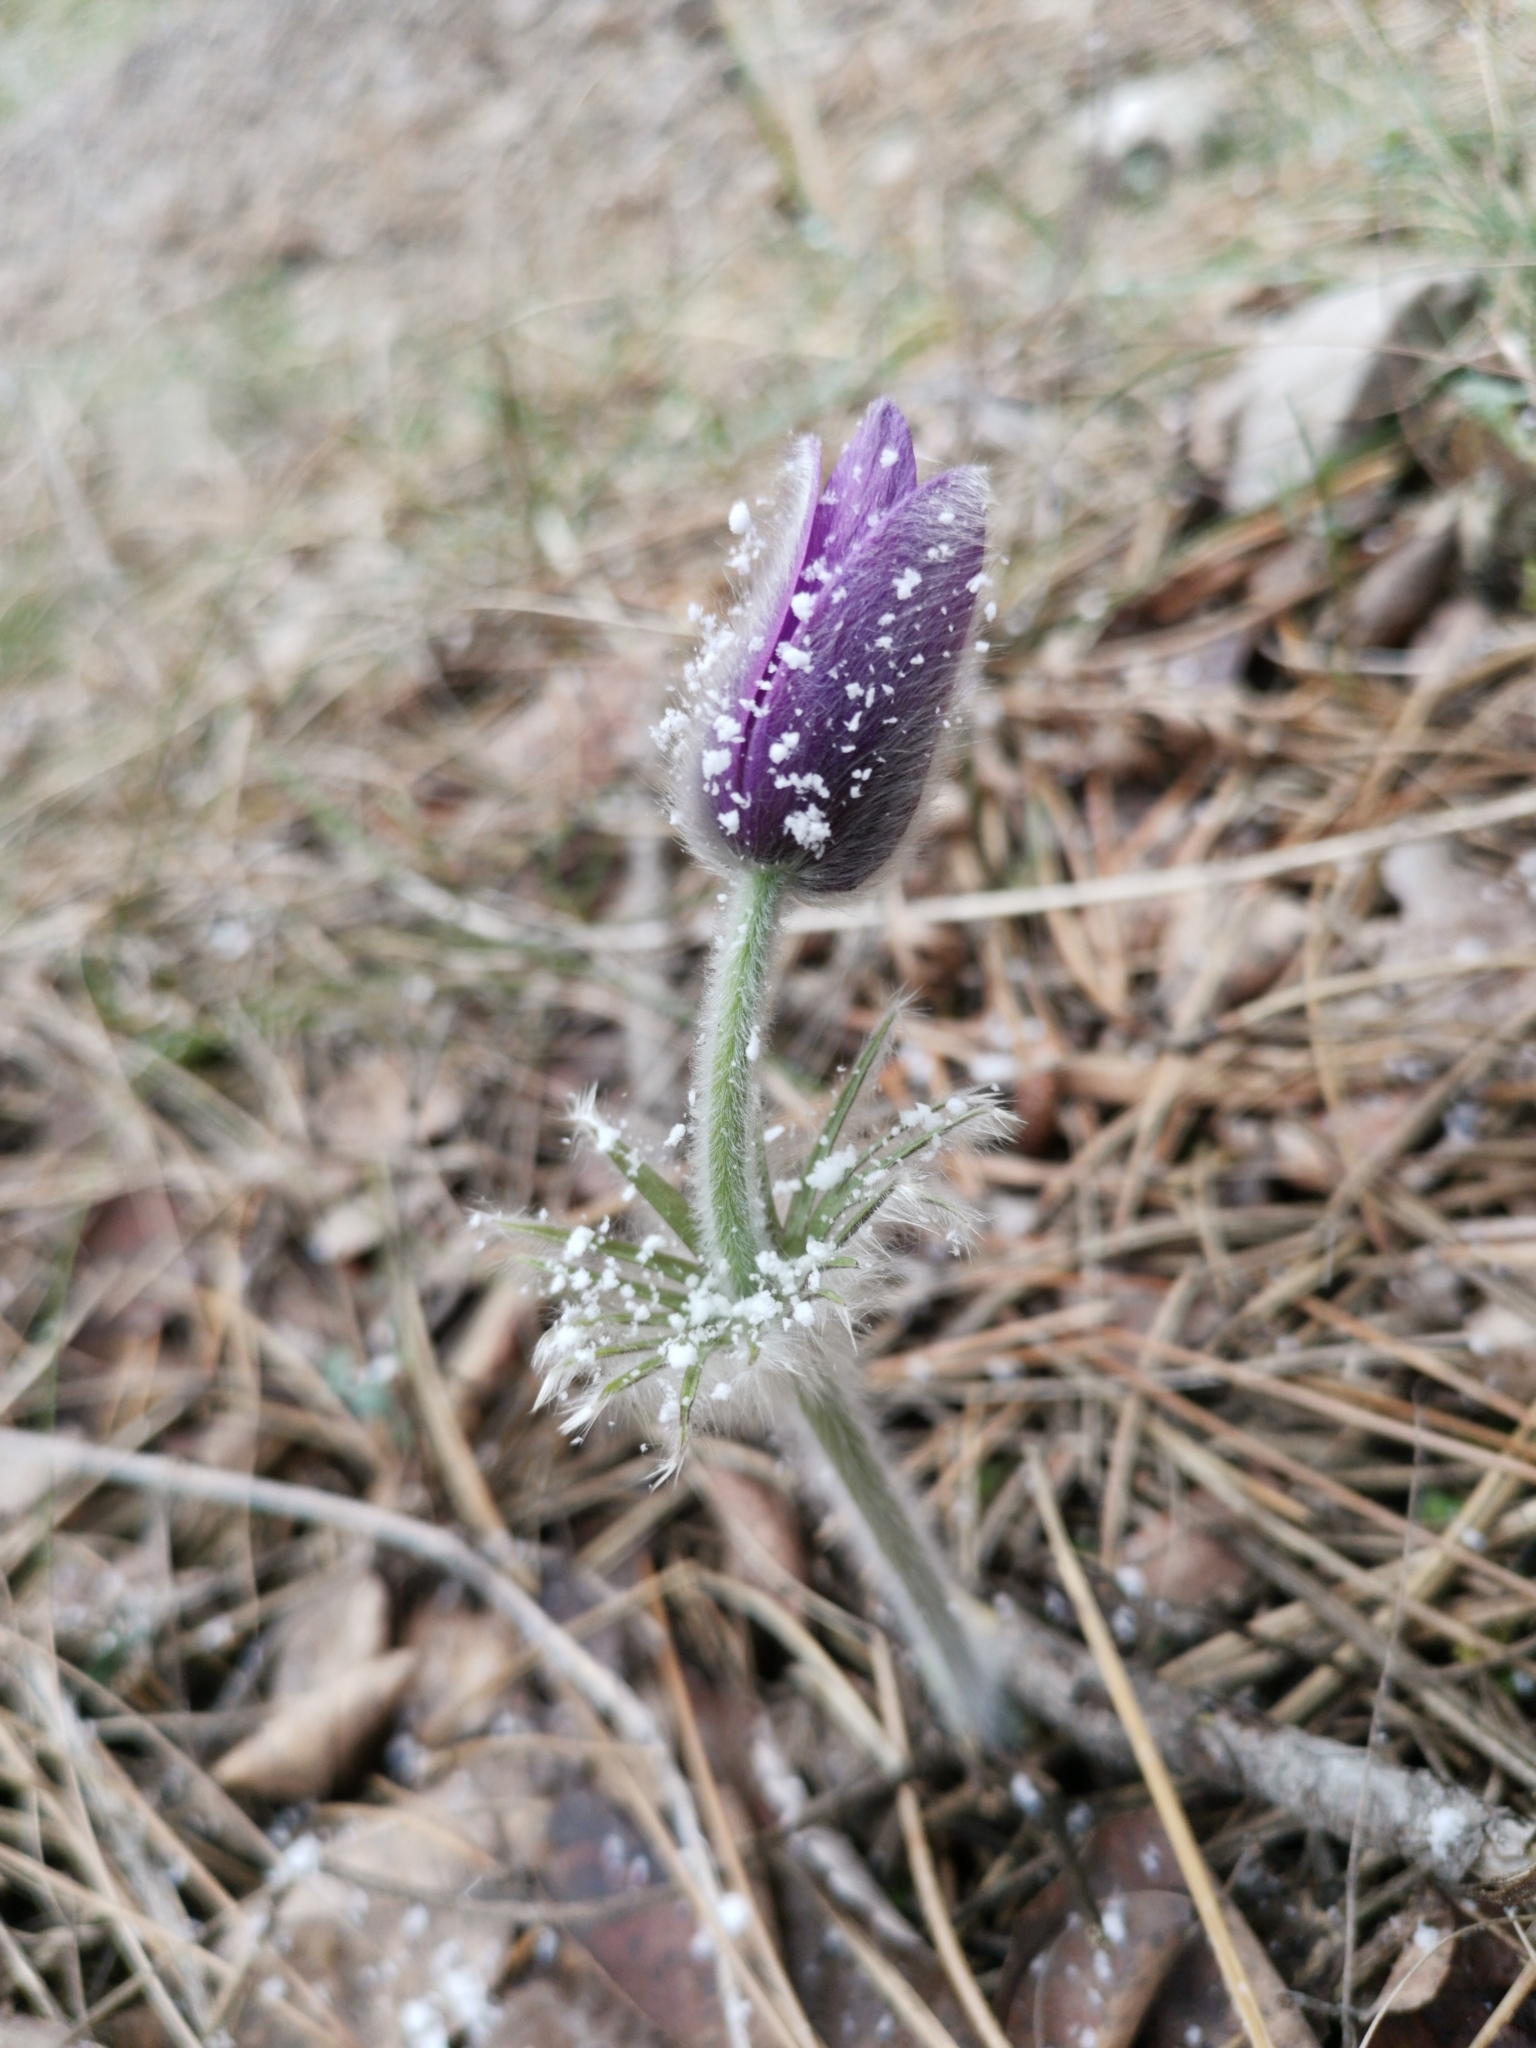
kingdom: Plantae
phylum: Tracheophyta
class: Magnoliopsida
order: Ranunculales
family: Ranunculaceae
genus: Pulsatilla
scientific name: Pulsatilla grandis
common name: Greater pasque flower
